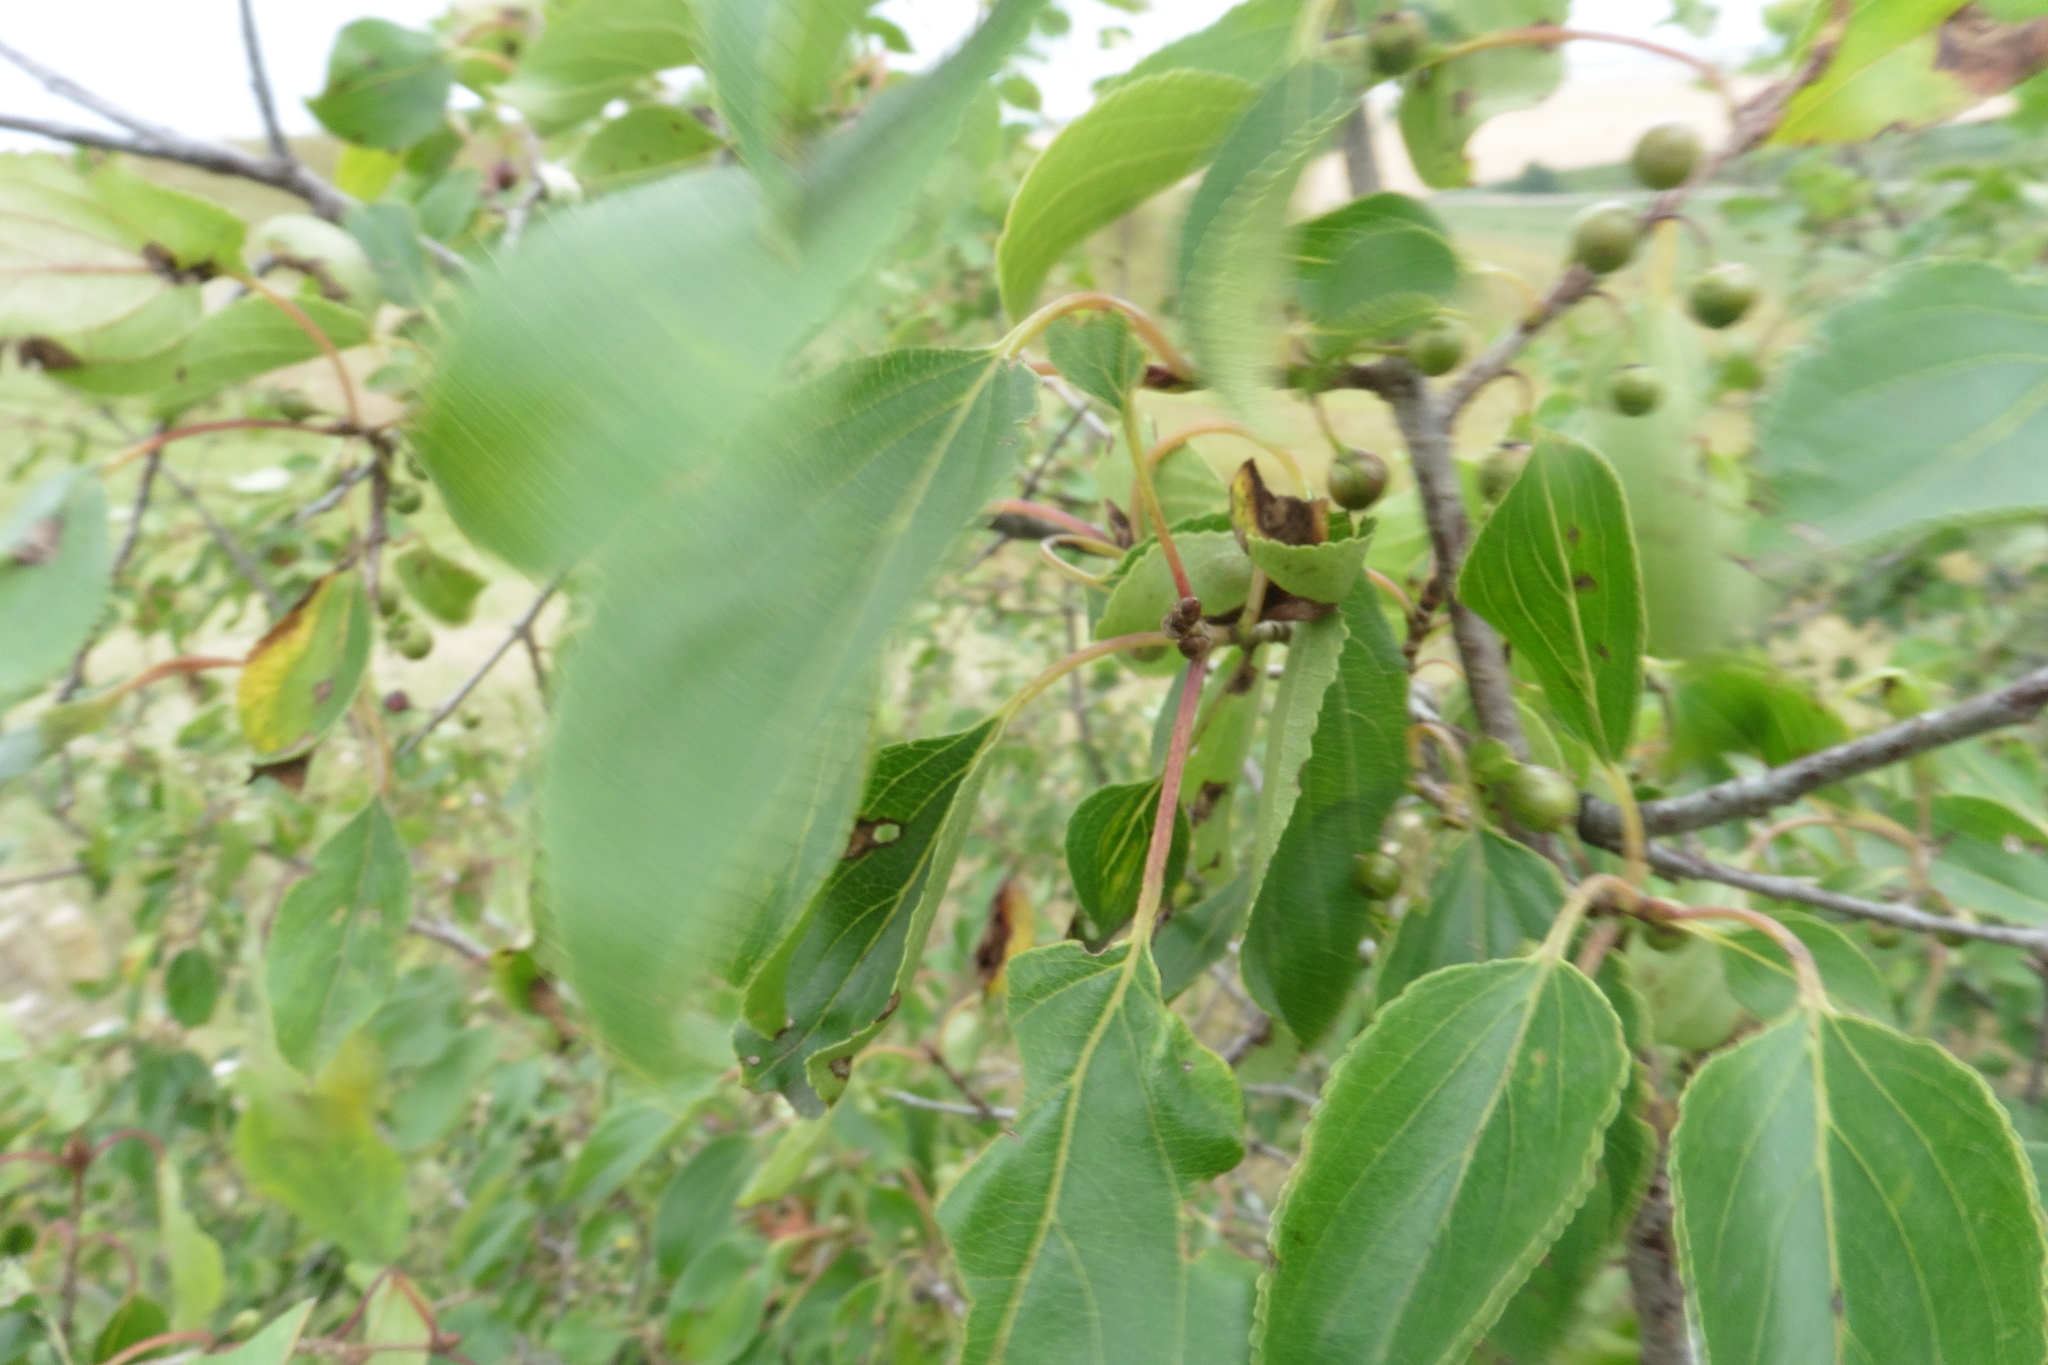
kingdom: Plantae
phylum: Tracheophyta
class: Magnoliopsida
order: Rosales
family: Rhamnaceae
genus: Rhamnus
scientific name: Rhamnus cathartica
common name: Common buckthorn
